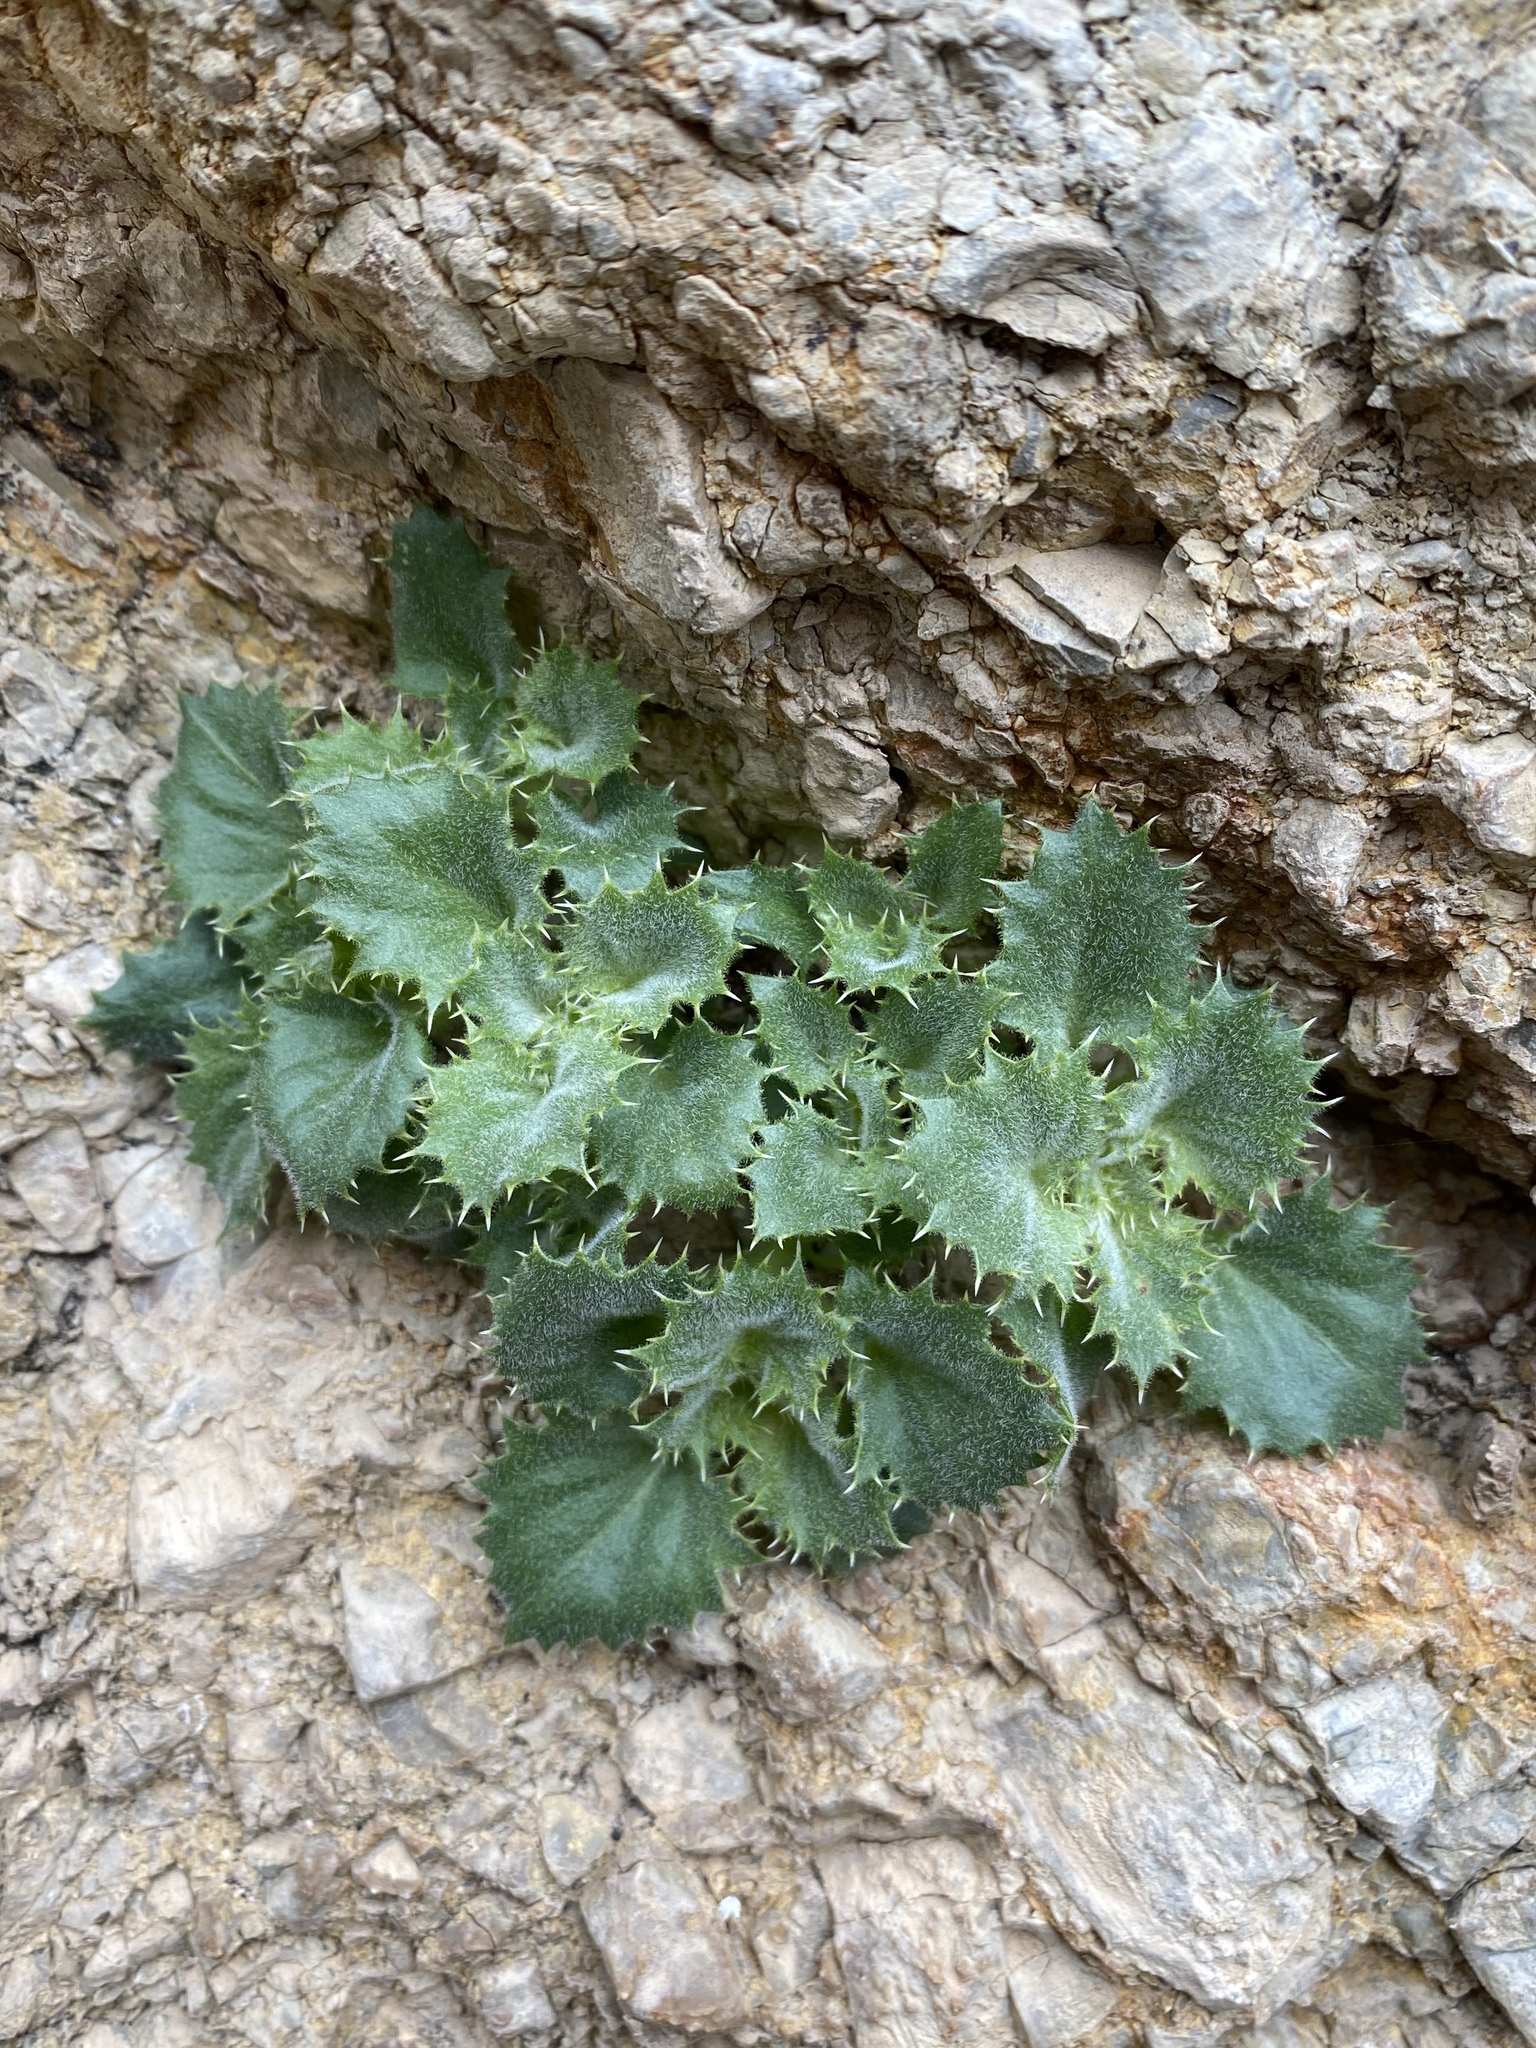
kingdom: Plantae
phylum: Tracheophyta
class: Magnoliopsida
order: Lamiales
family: Plantaginaceae
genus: Holmgrenanthe
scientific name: Holmgrenanthe petrophila
